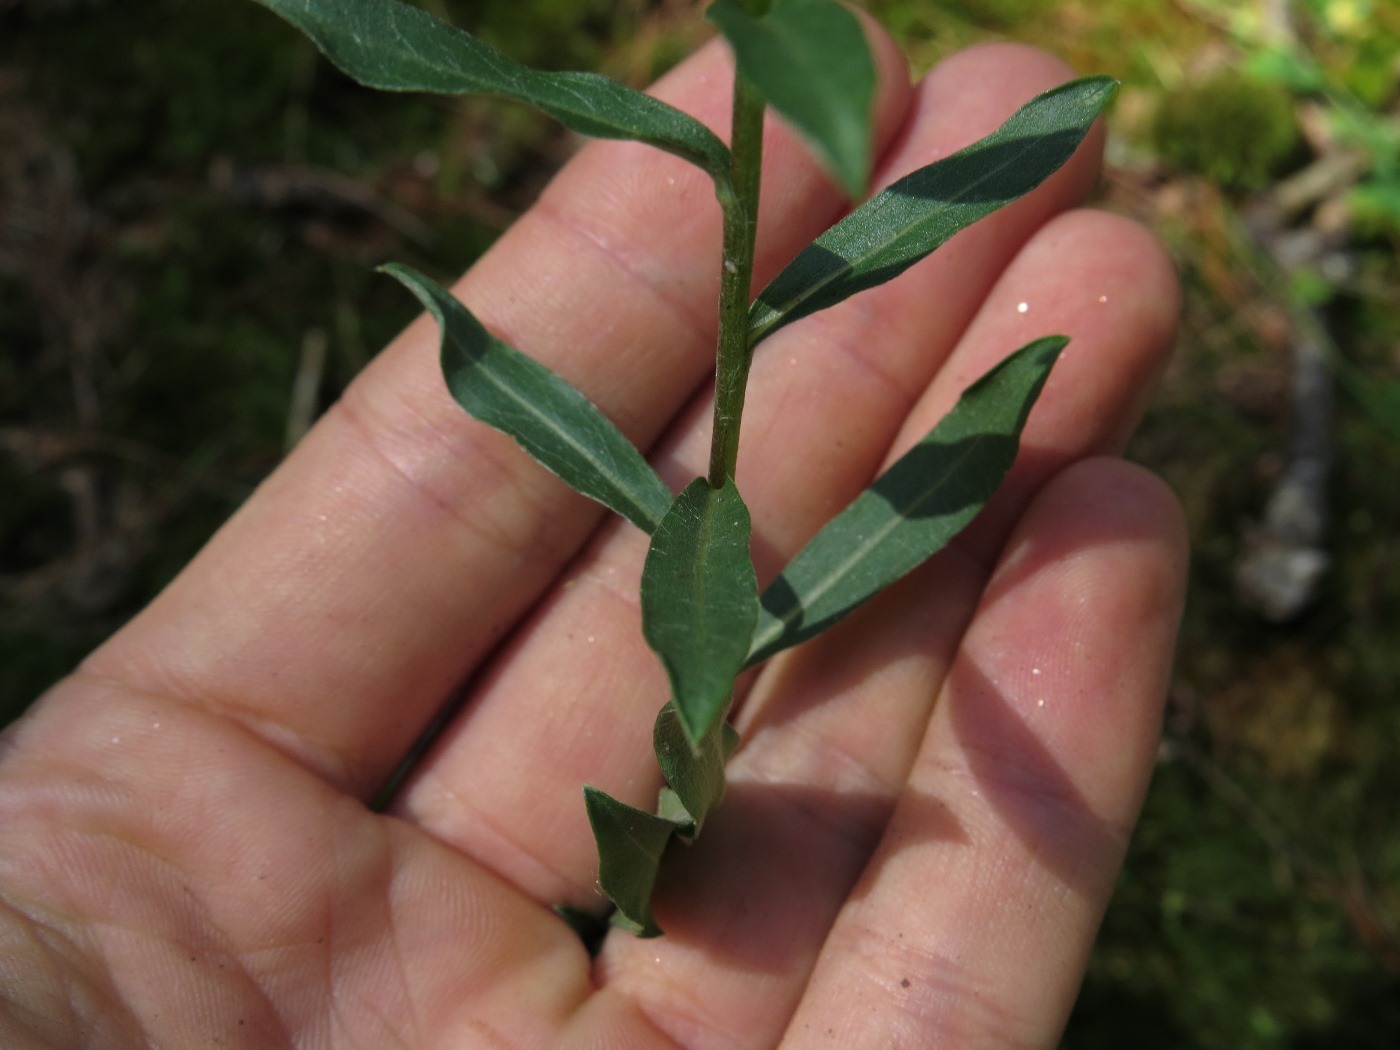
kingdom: Plantae
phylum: Tracheophyta
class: Magnoliopsida
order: Asterales
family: Asteraceae
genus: Chrysopsis
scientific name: Chrysopsis mariana
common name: Maryland golden-aster
